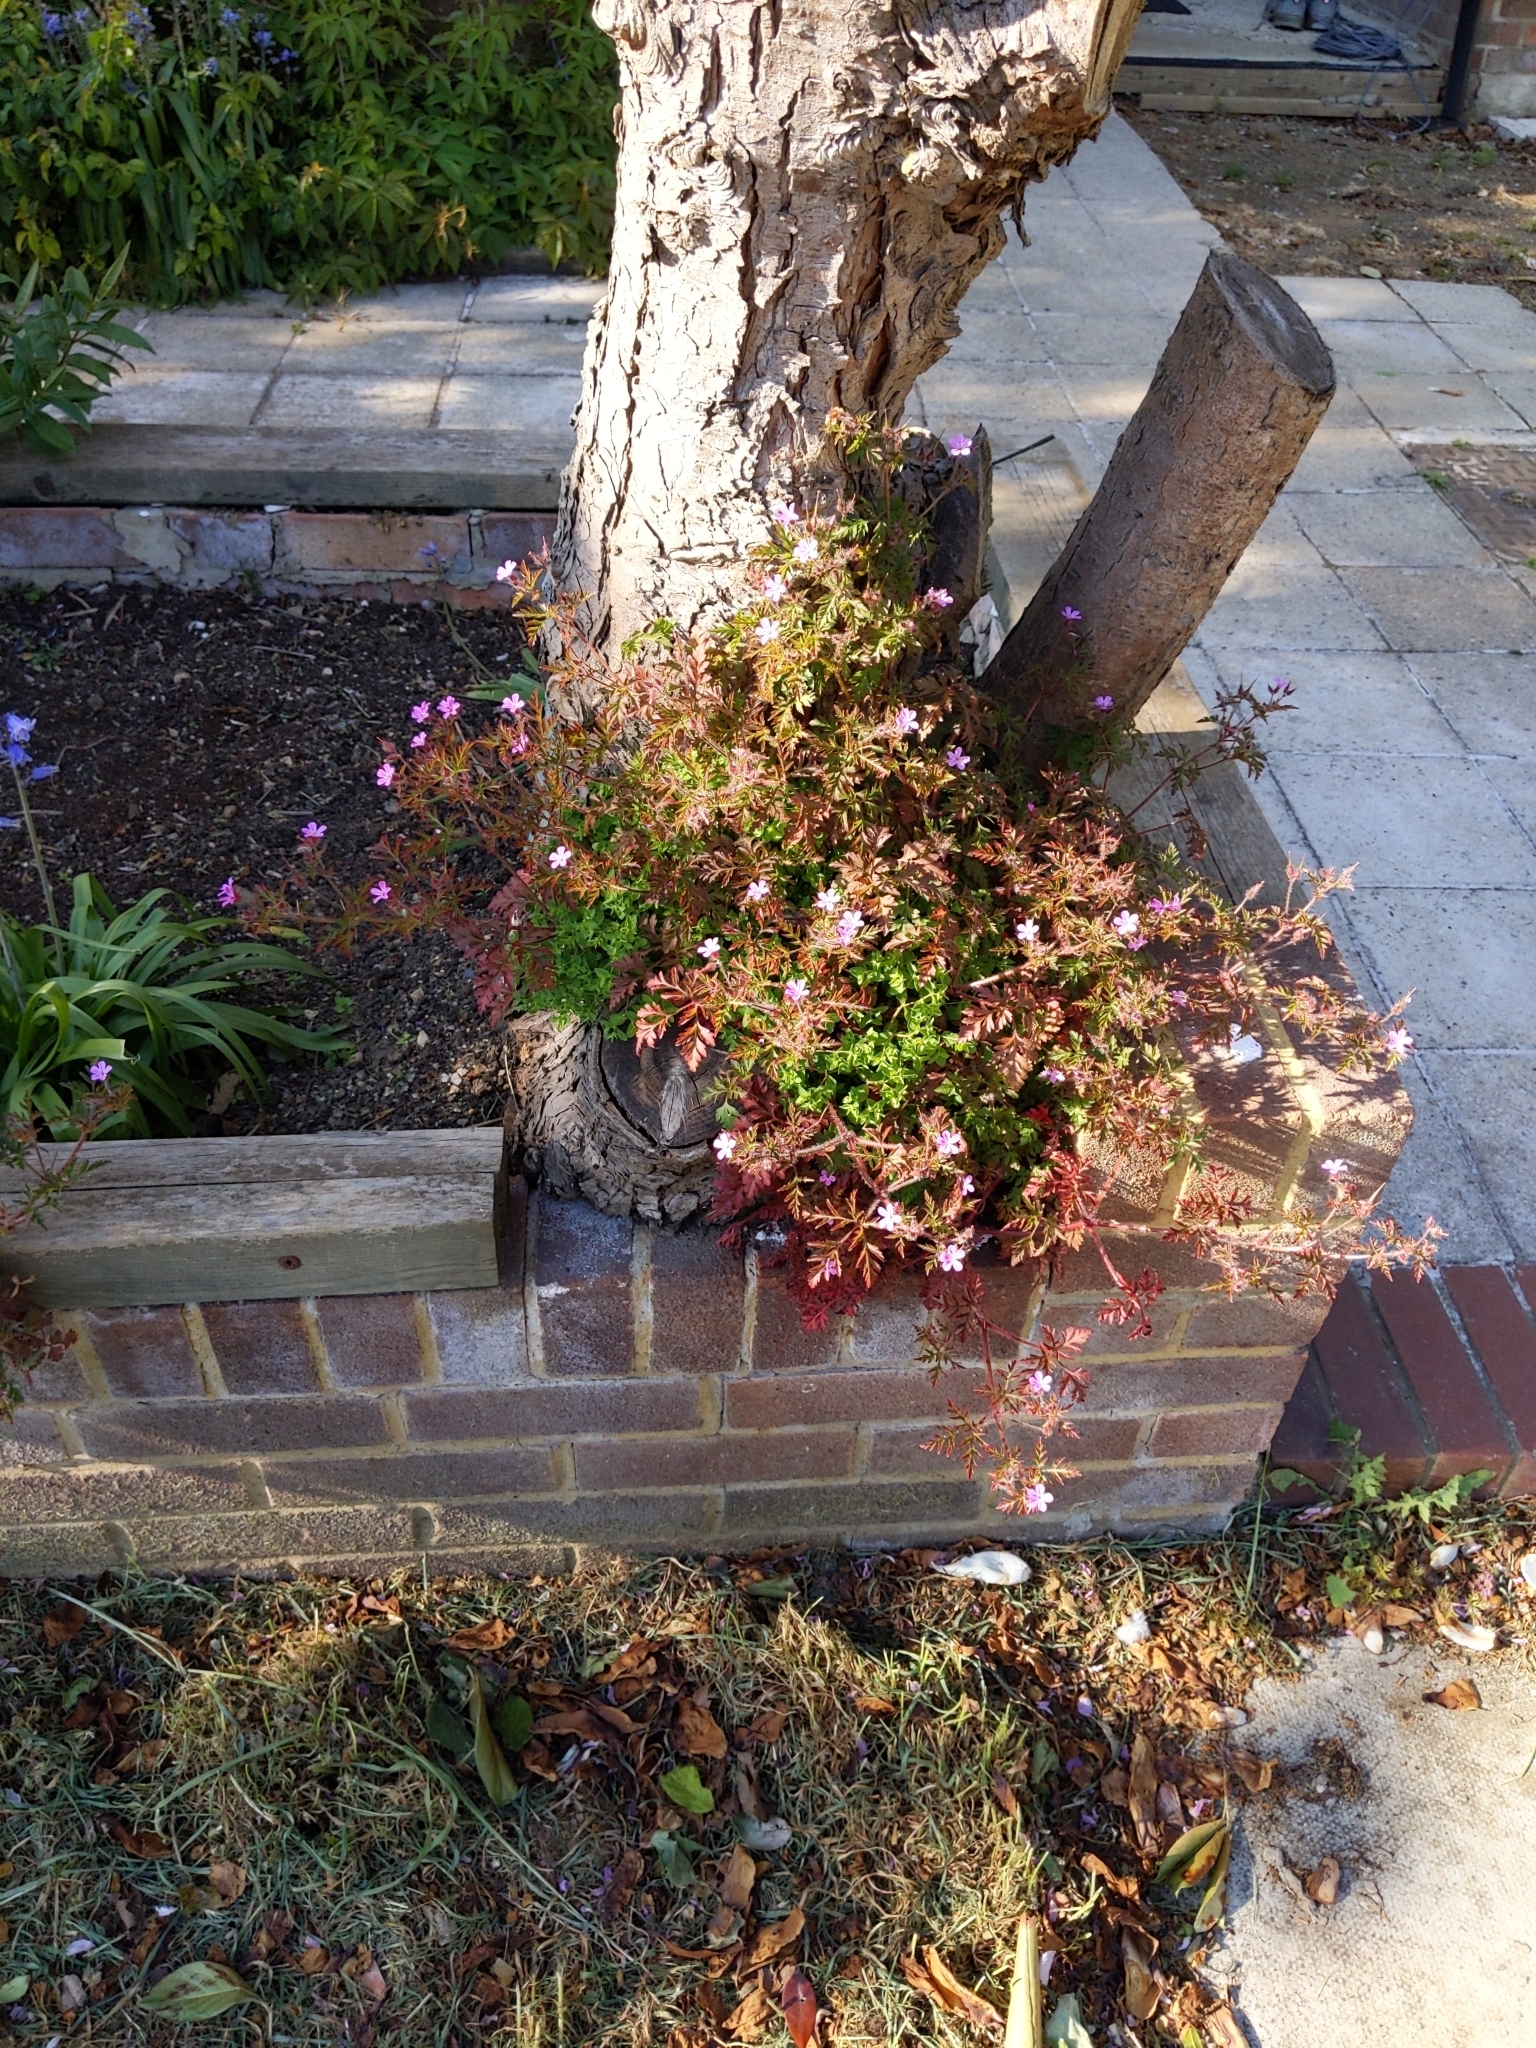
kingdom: Plantae
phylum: Tracheophyta
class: Magnoliopsida
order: Geraniales
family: Geraniaceae
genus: Geranium
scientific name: Geranium robertianum
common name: Herb-robert
